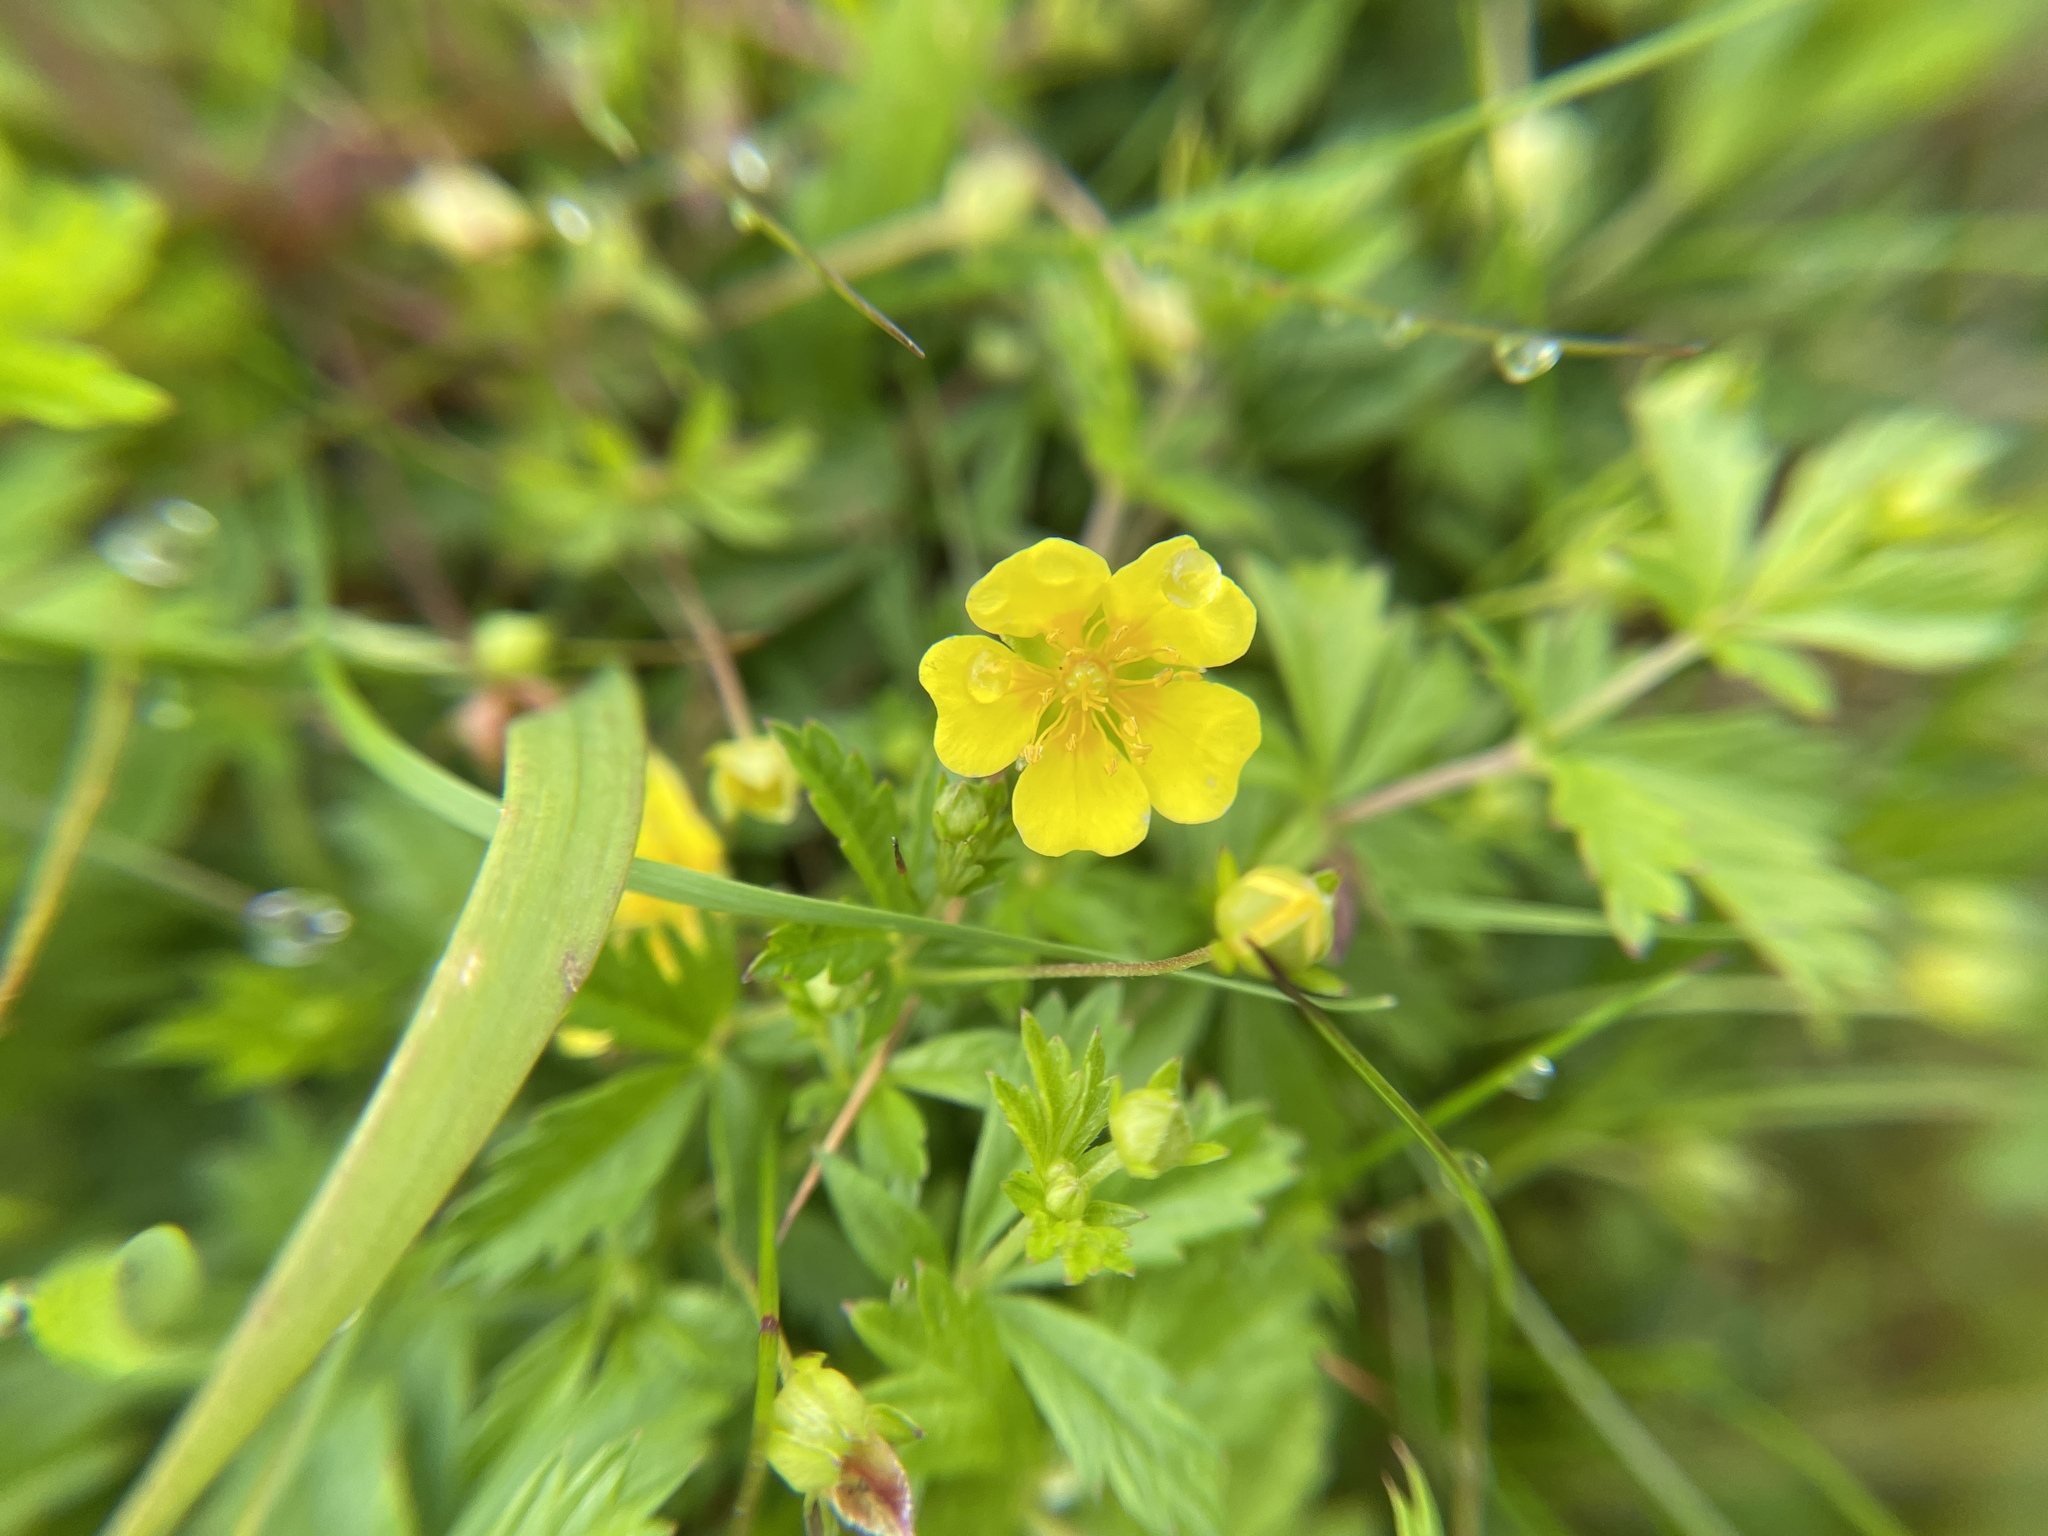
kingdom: Plantae
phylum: Tracheophyta
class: Magnoliopsida
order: Rosales
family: Rosaceae
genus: Potentilla
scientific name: Potentilla erecta
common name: Tormentil
